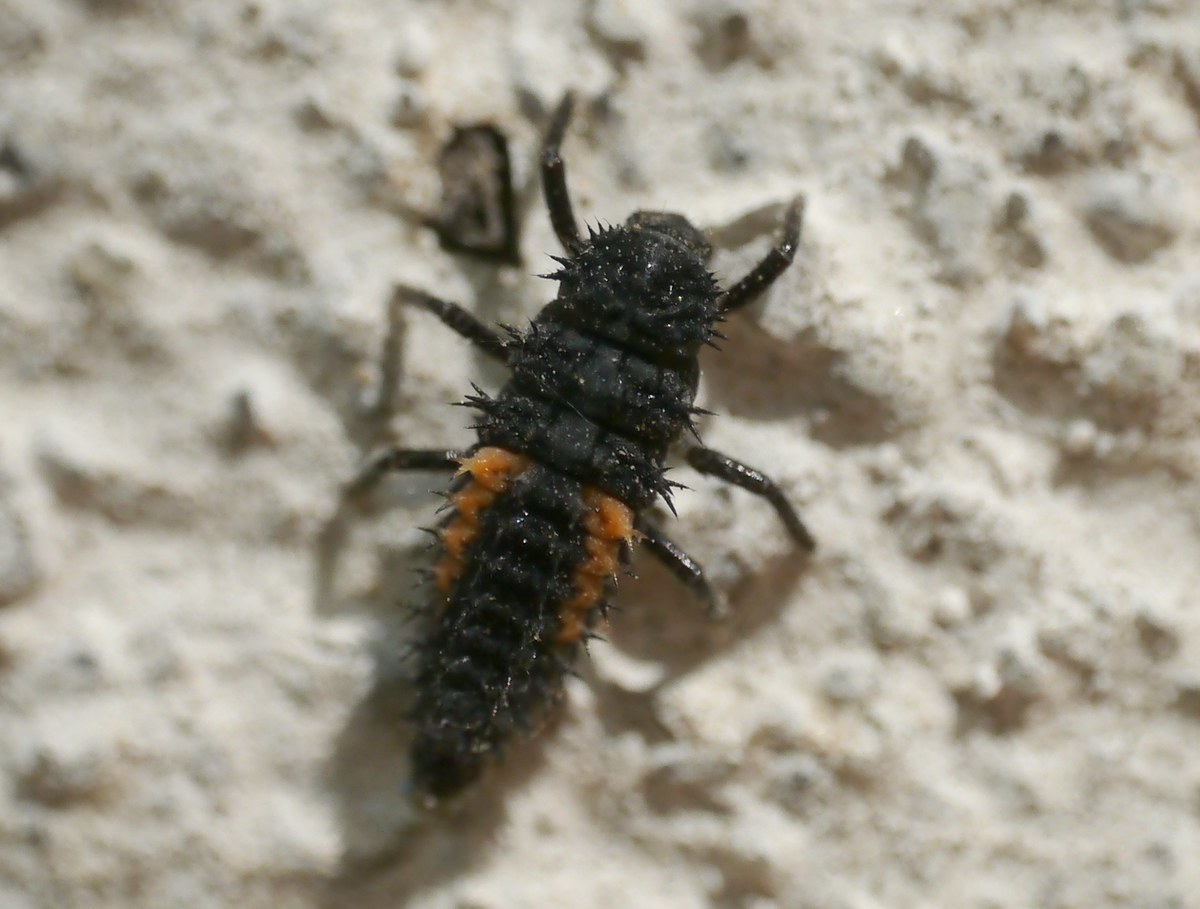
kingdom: Animalia
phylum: Arthropoda
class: Insecta
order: Coleoptera
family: Coccinellidae
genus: Harmonia
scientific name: Harmonia axyridis
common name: Harlequin ladybird
